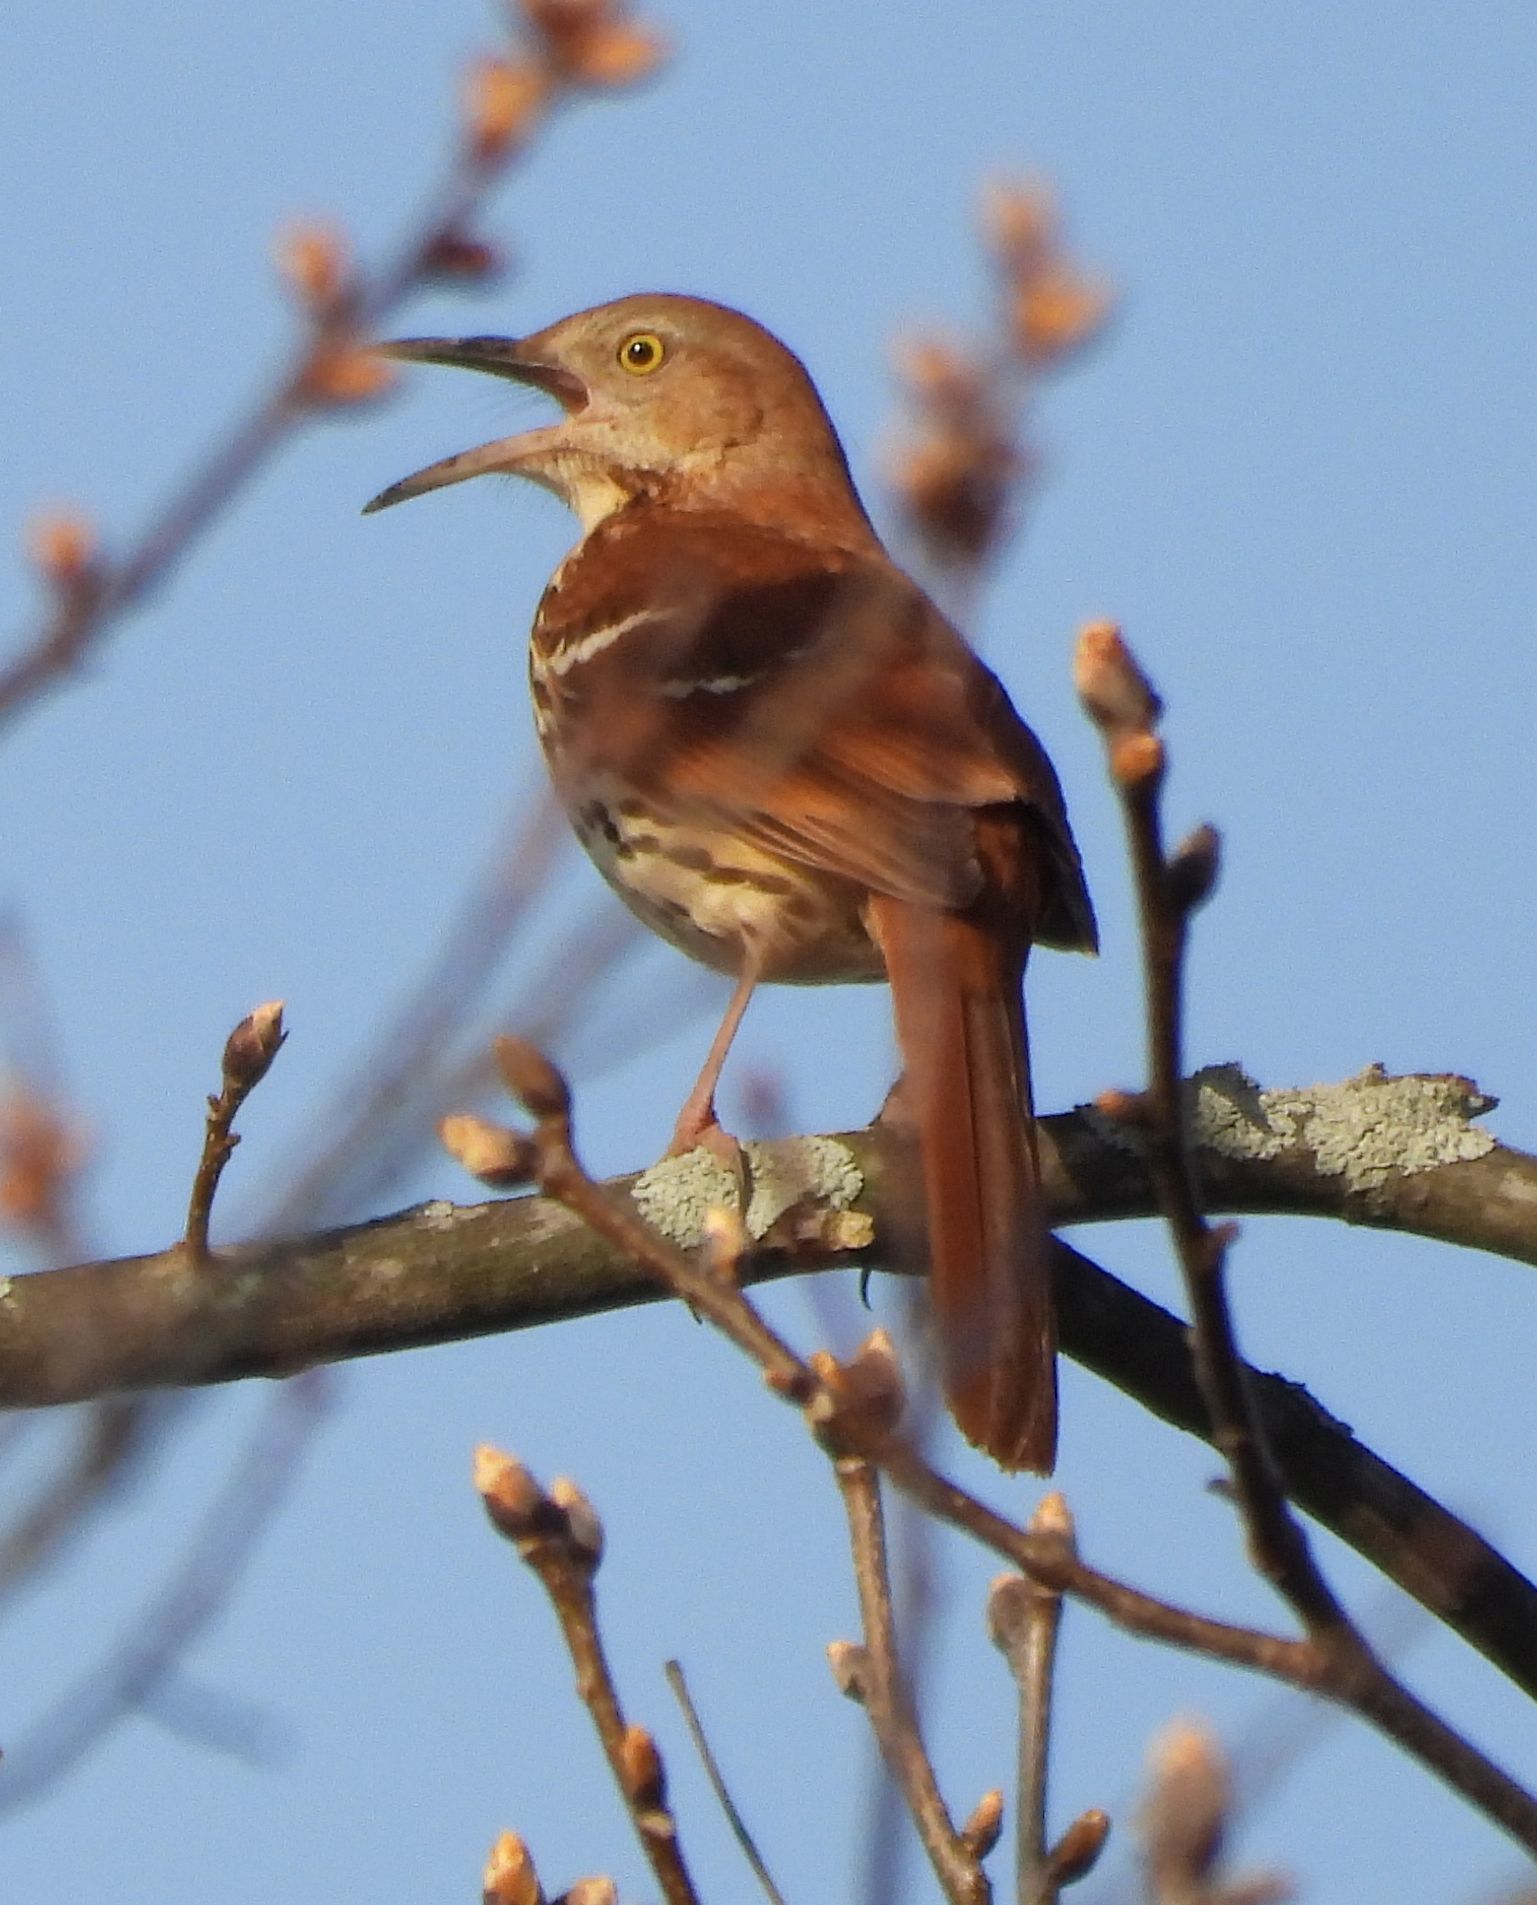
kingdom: Animalia
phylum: Chordata
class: Aves
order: Passeriformes
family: Mimidae
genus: Toxostoma
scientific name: Toxostoma rufum
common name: Brown thrasher
